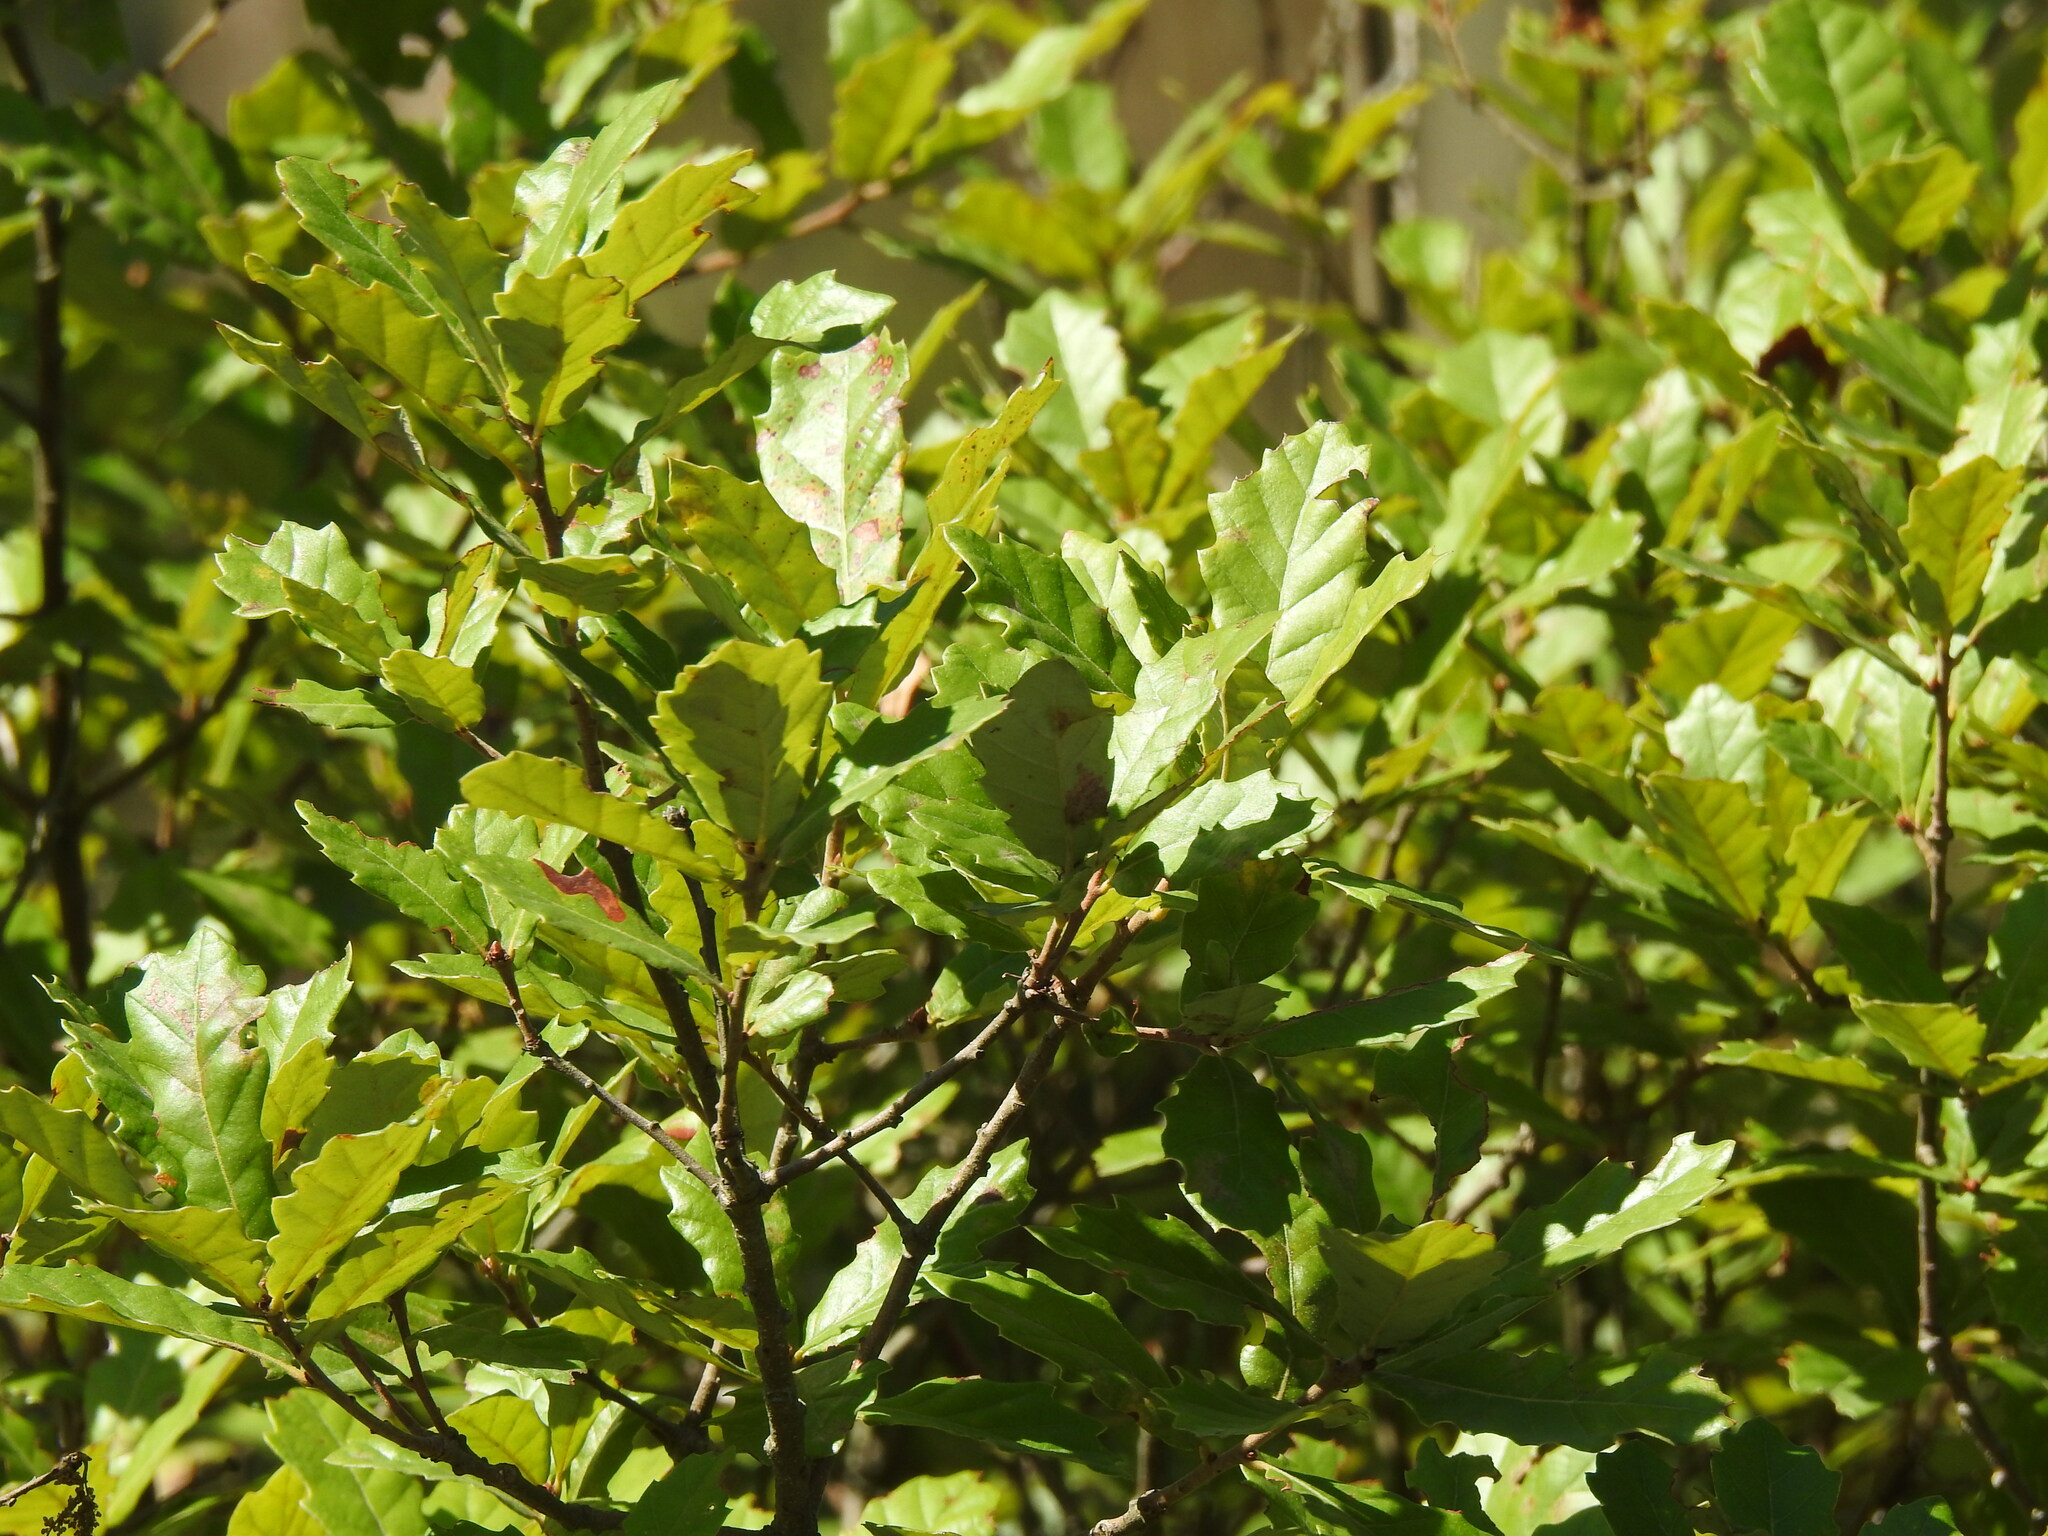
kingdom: Plantae
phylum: Tracheophyta
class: Magnoliopsida
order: Fagales
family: Fagaceae
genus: Quercus
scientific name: Quercus lusitanica
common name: Scrub gall oak
